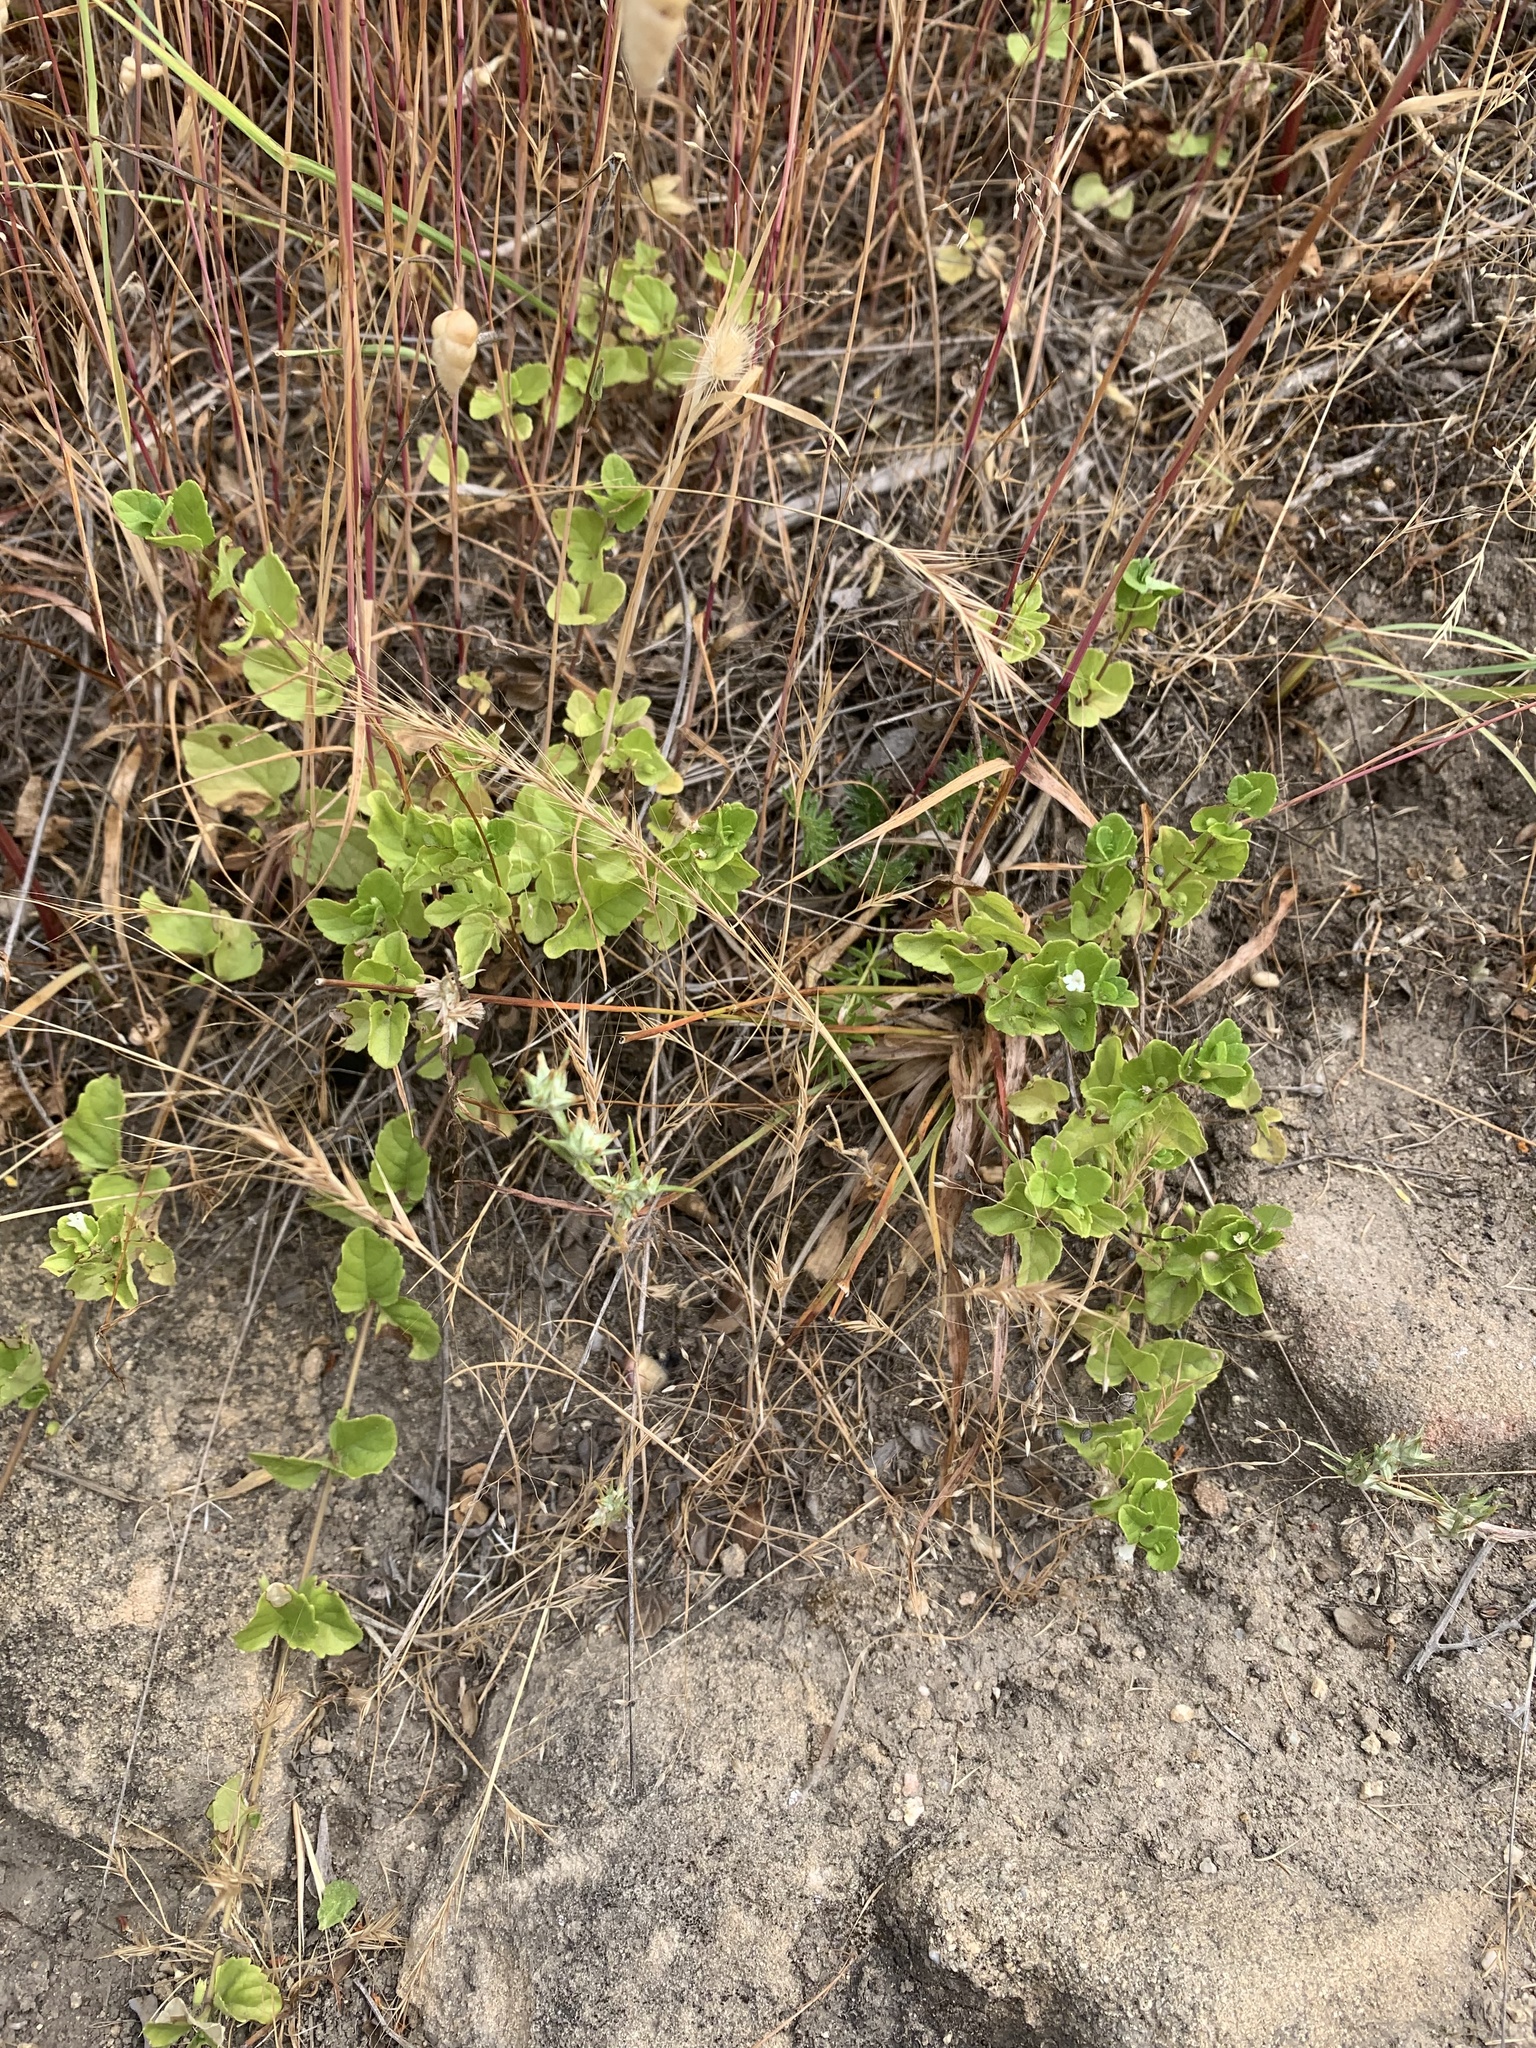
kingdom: Plantae
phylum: Tracheophyta
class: Magnoliopsida
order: Lamiales
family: Lamiaceae
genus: Micromeria
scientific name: Micromeria douglasii
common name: Yerba buena
